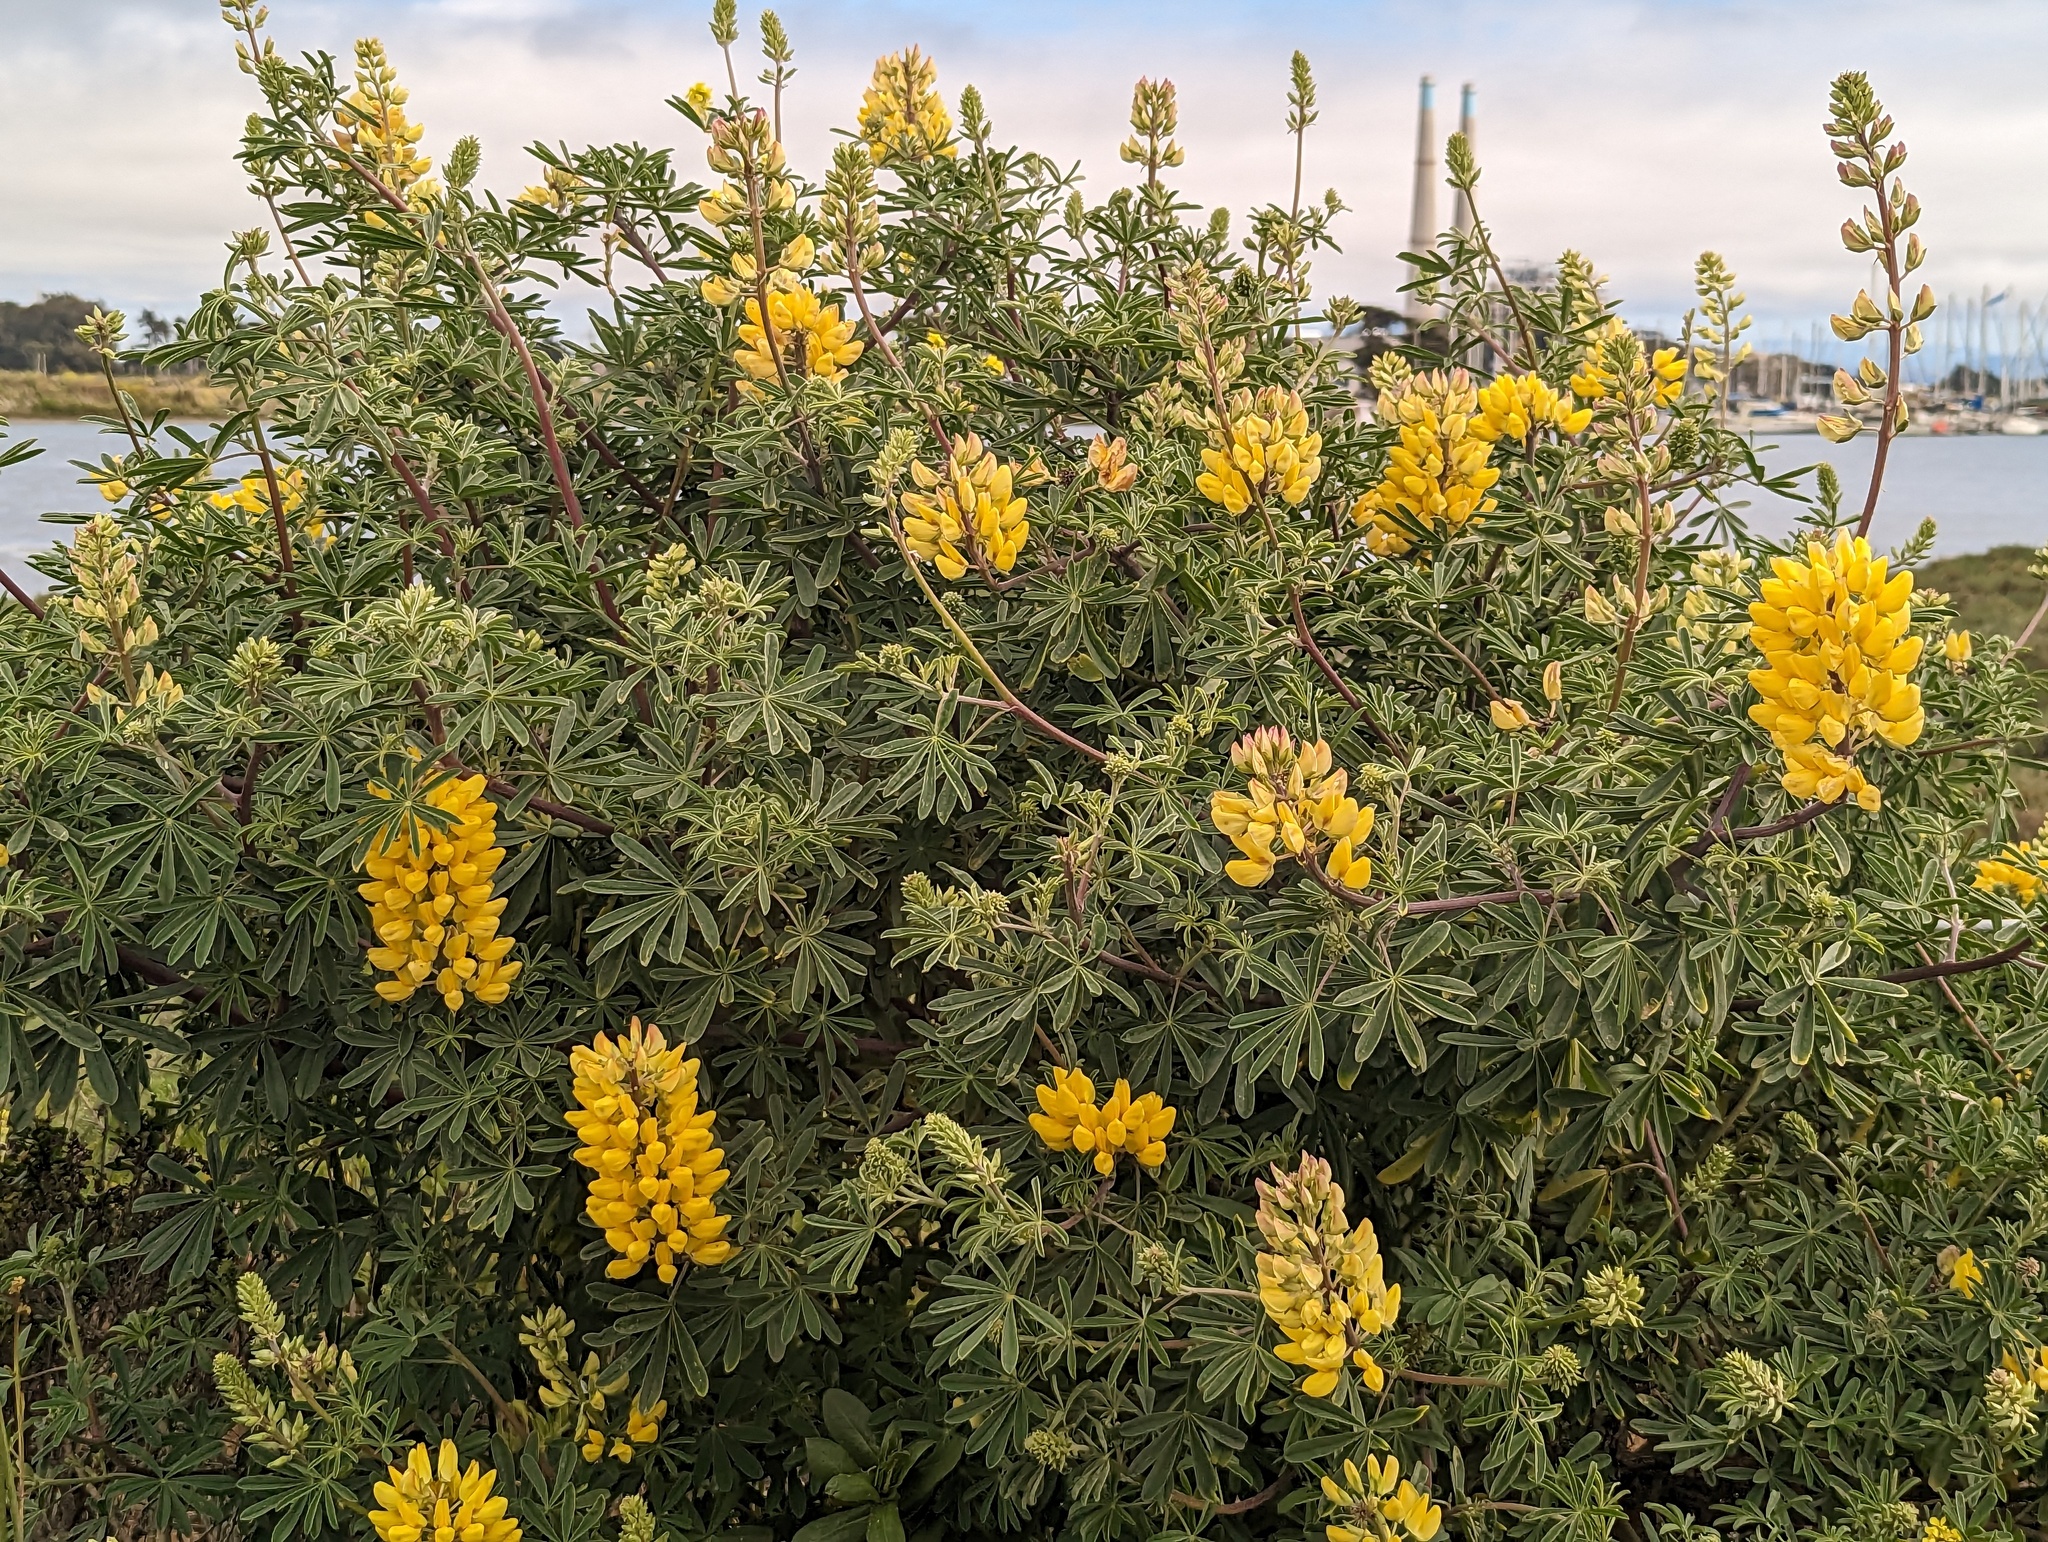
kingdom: Plantae
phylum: Tracheophyta
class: Magnoliopsida
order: Fabales
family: Fabaceae
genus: Lupinus
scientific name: Lupinus arboreus
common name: Yellow bush lupine
